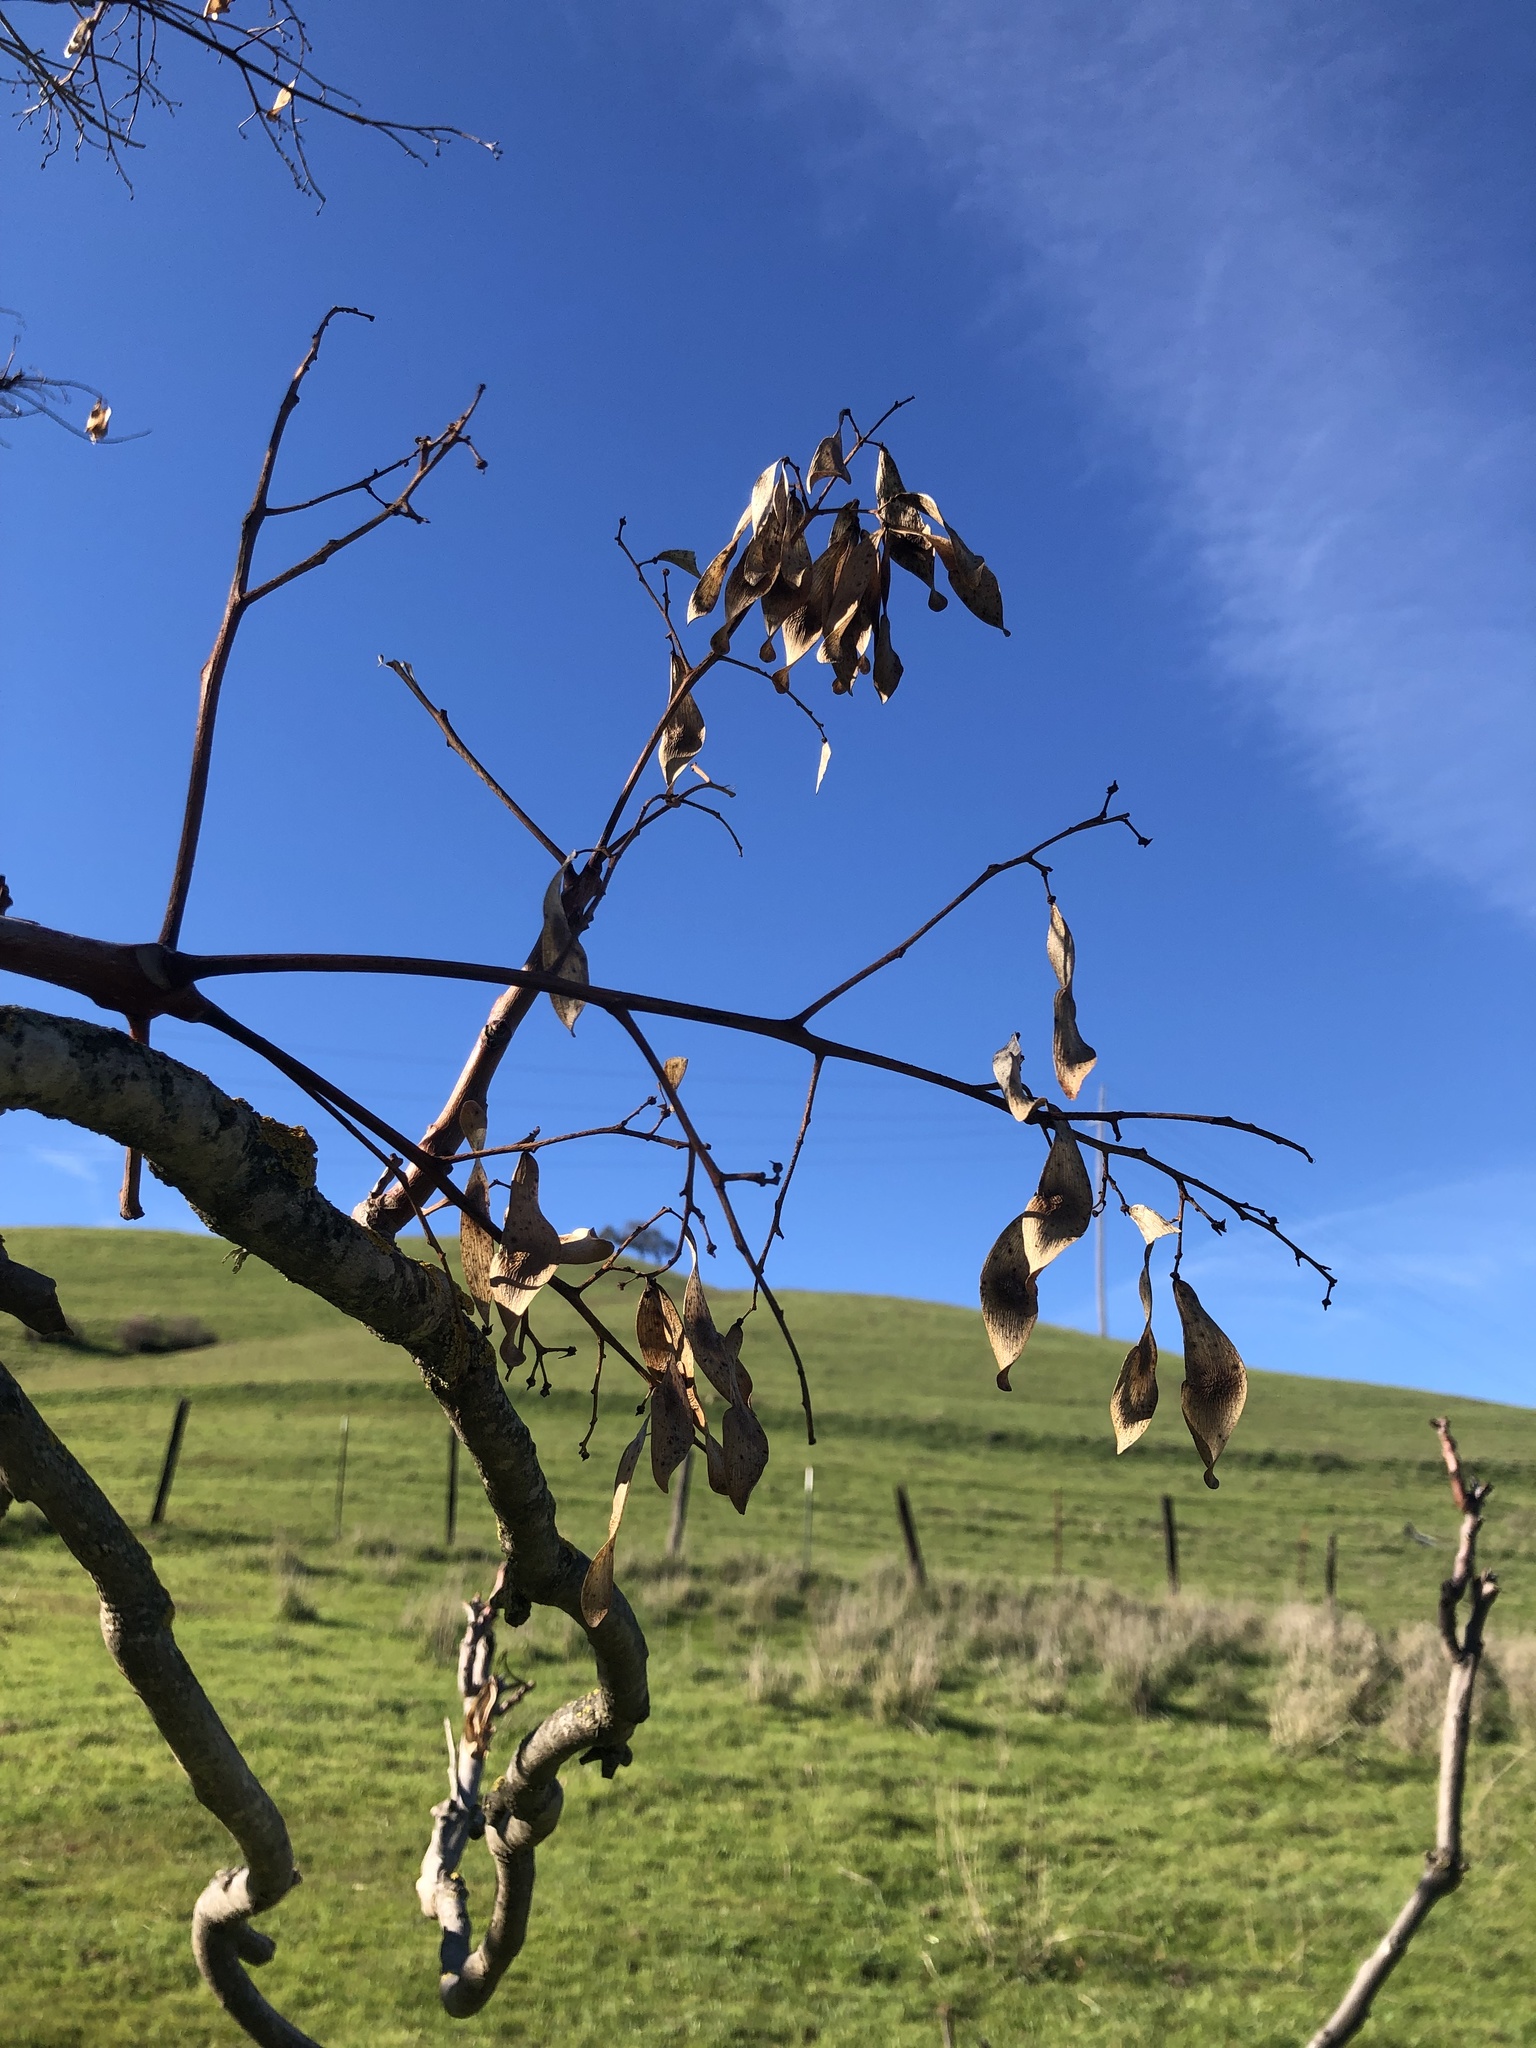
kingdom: Plantae
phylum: Tracheophyta
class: Magnoliopsida
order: Sapindales
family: Simaroubaceae
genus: Ailanthus
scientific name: Ailanthus altissima
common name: Tree-of-heaven
